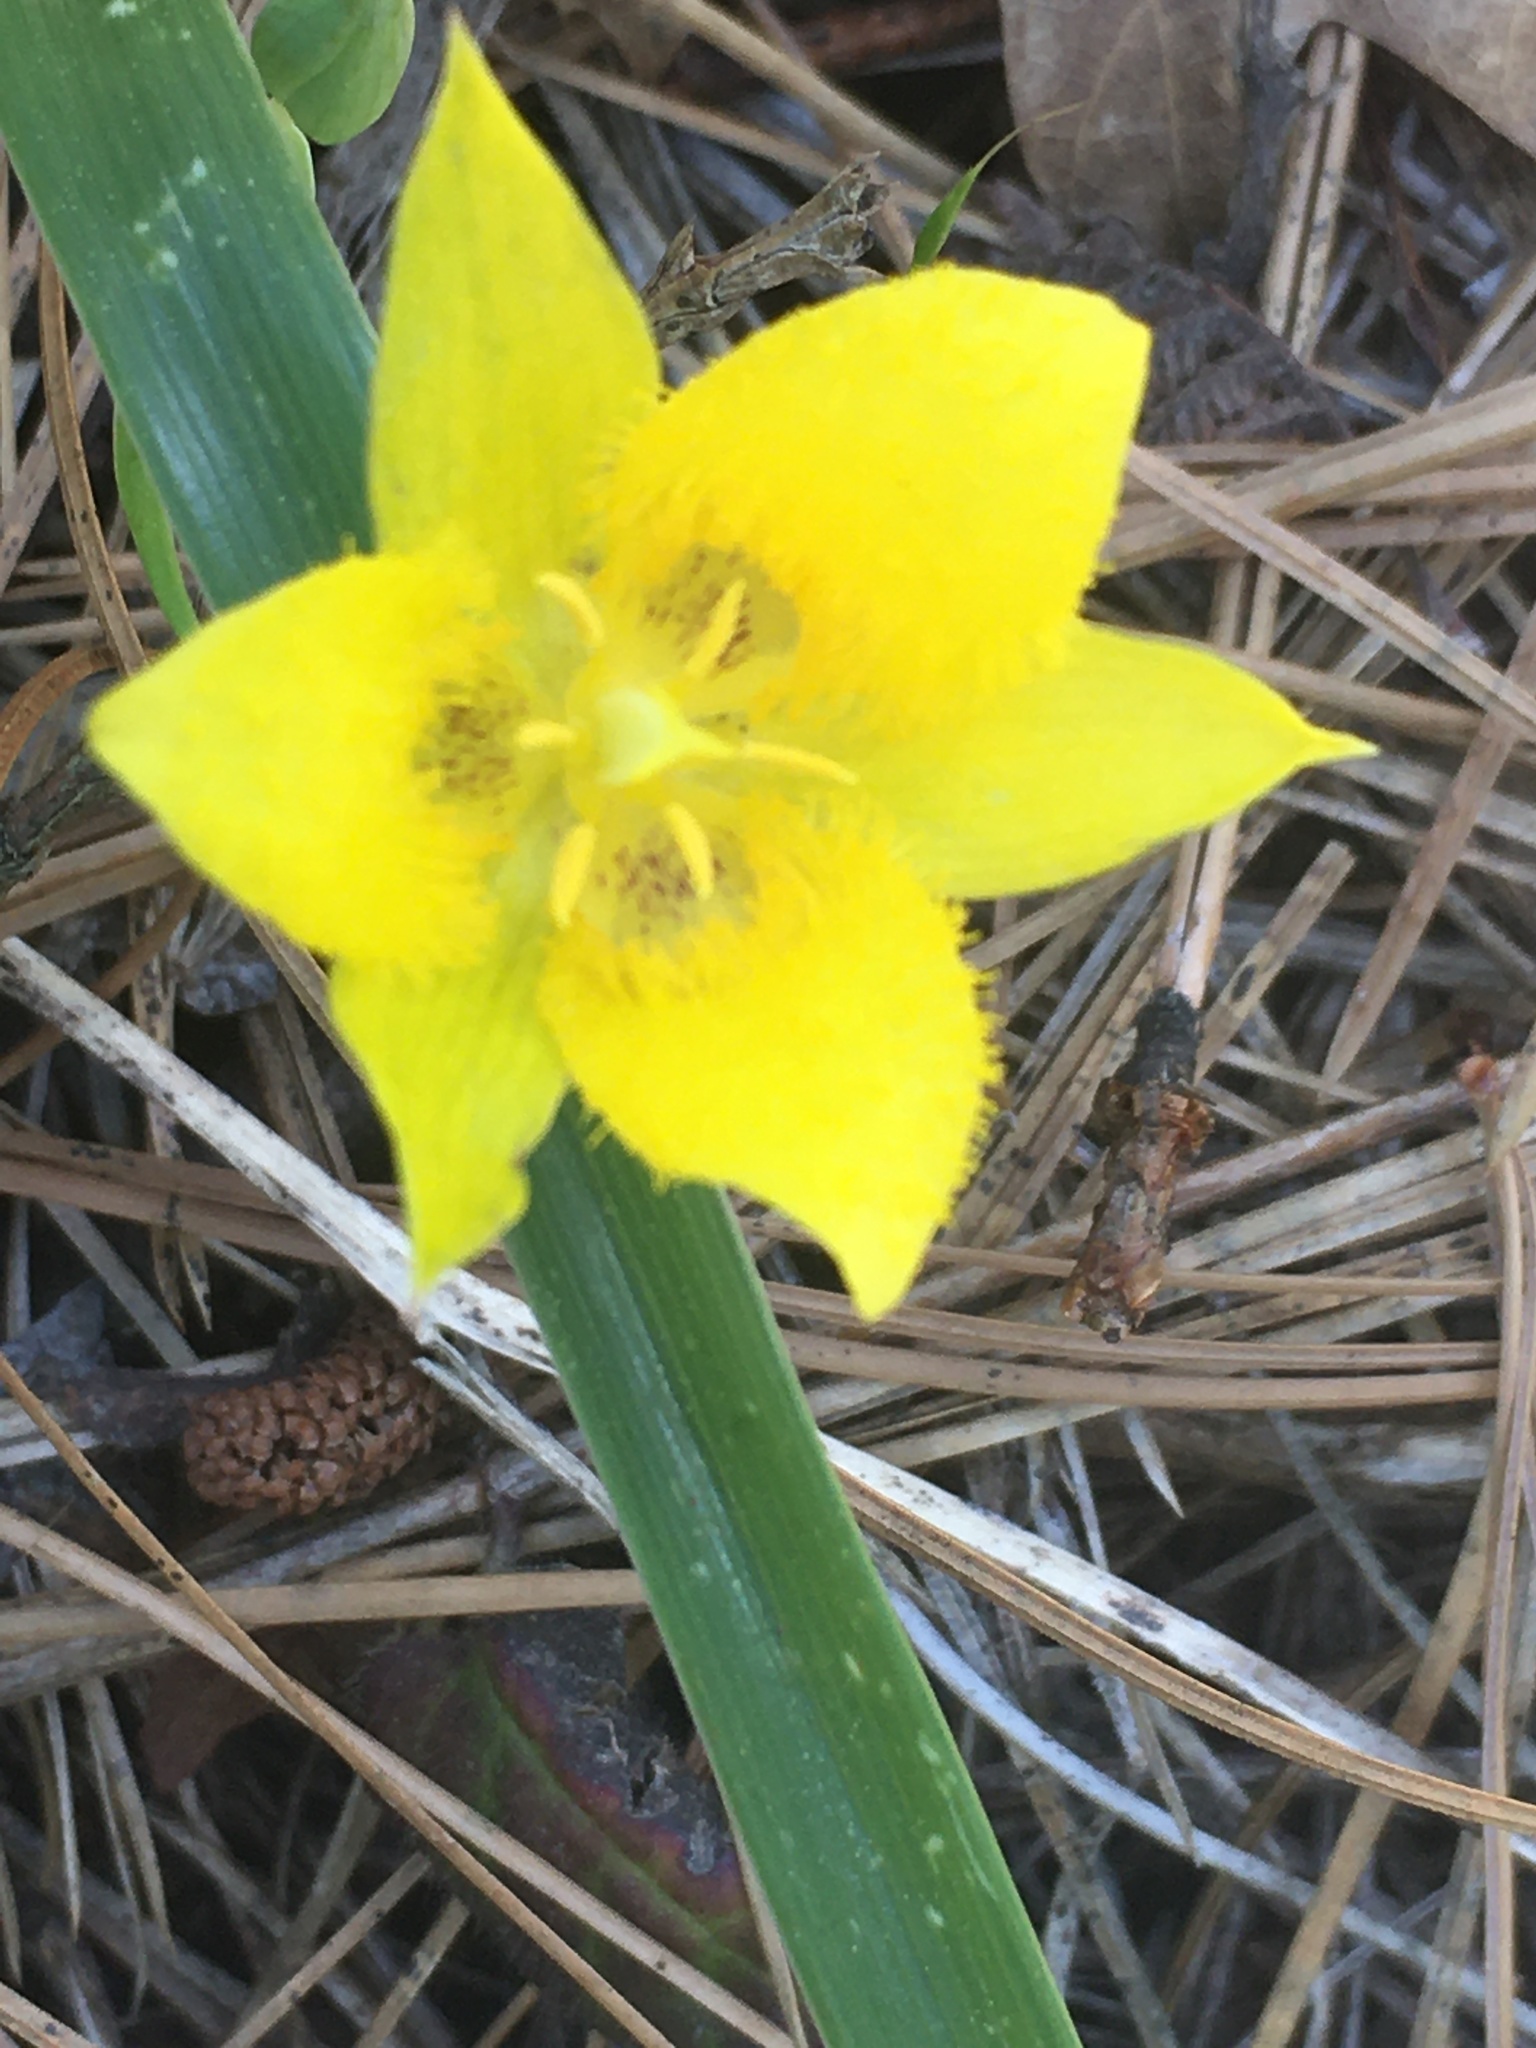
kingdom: Plantae
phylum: Tracheophyta
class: Liliopsida
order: Liliales
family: Liliaceae
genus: Calochortus
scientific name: Calochortus monophyllus
